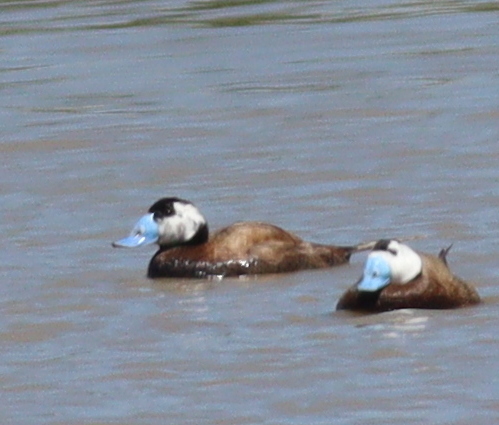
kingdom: Animalia
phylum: Chordata
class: Aves
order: Anseriformes
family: Anatidae
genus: Oxyura
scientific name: Oxyura leucocephala
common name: White-headed duck
